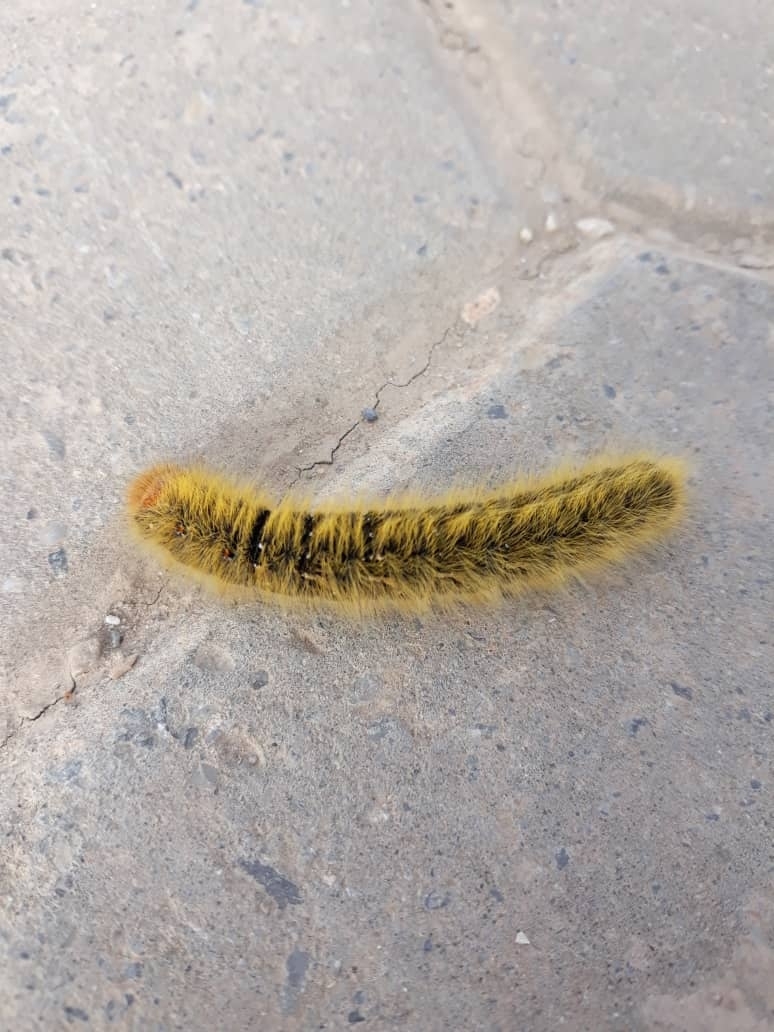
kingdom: Animalia
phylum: Arthropoda
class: Insecta
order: Lepidoptera
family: Lasiocampidae
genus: Lasiocampa
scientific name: Lasiocampa trifolii
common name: Grass eggar
